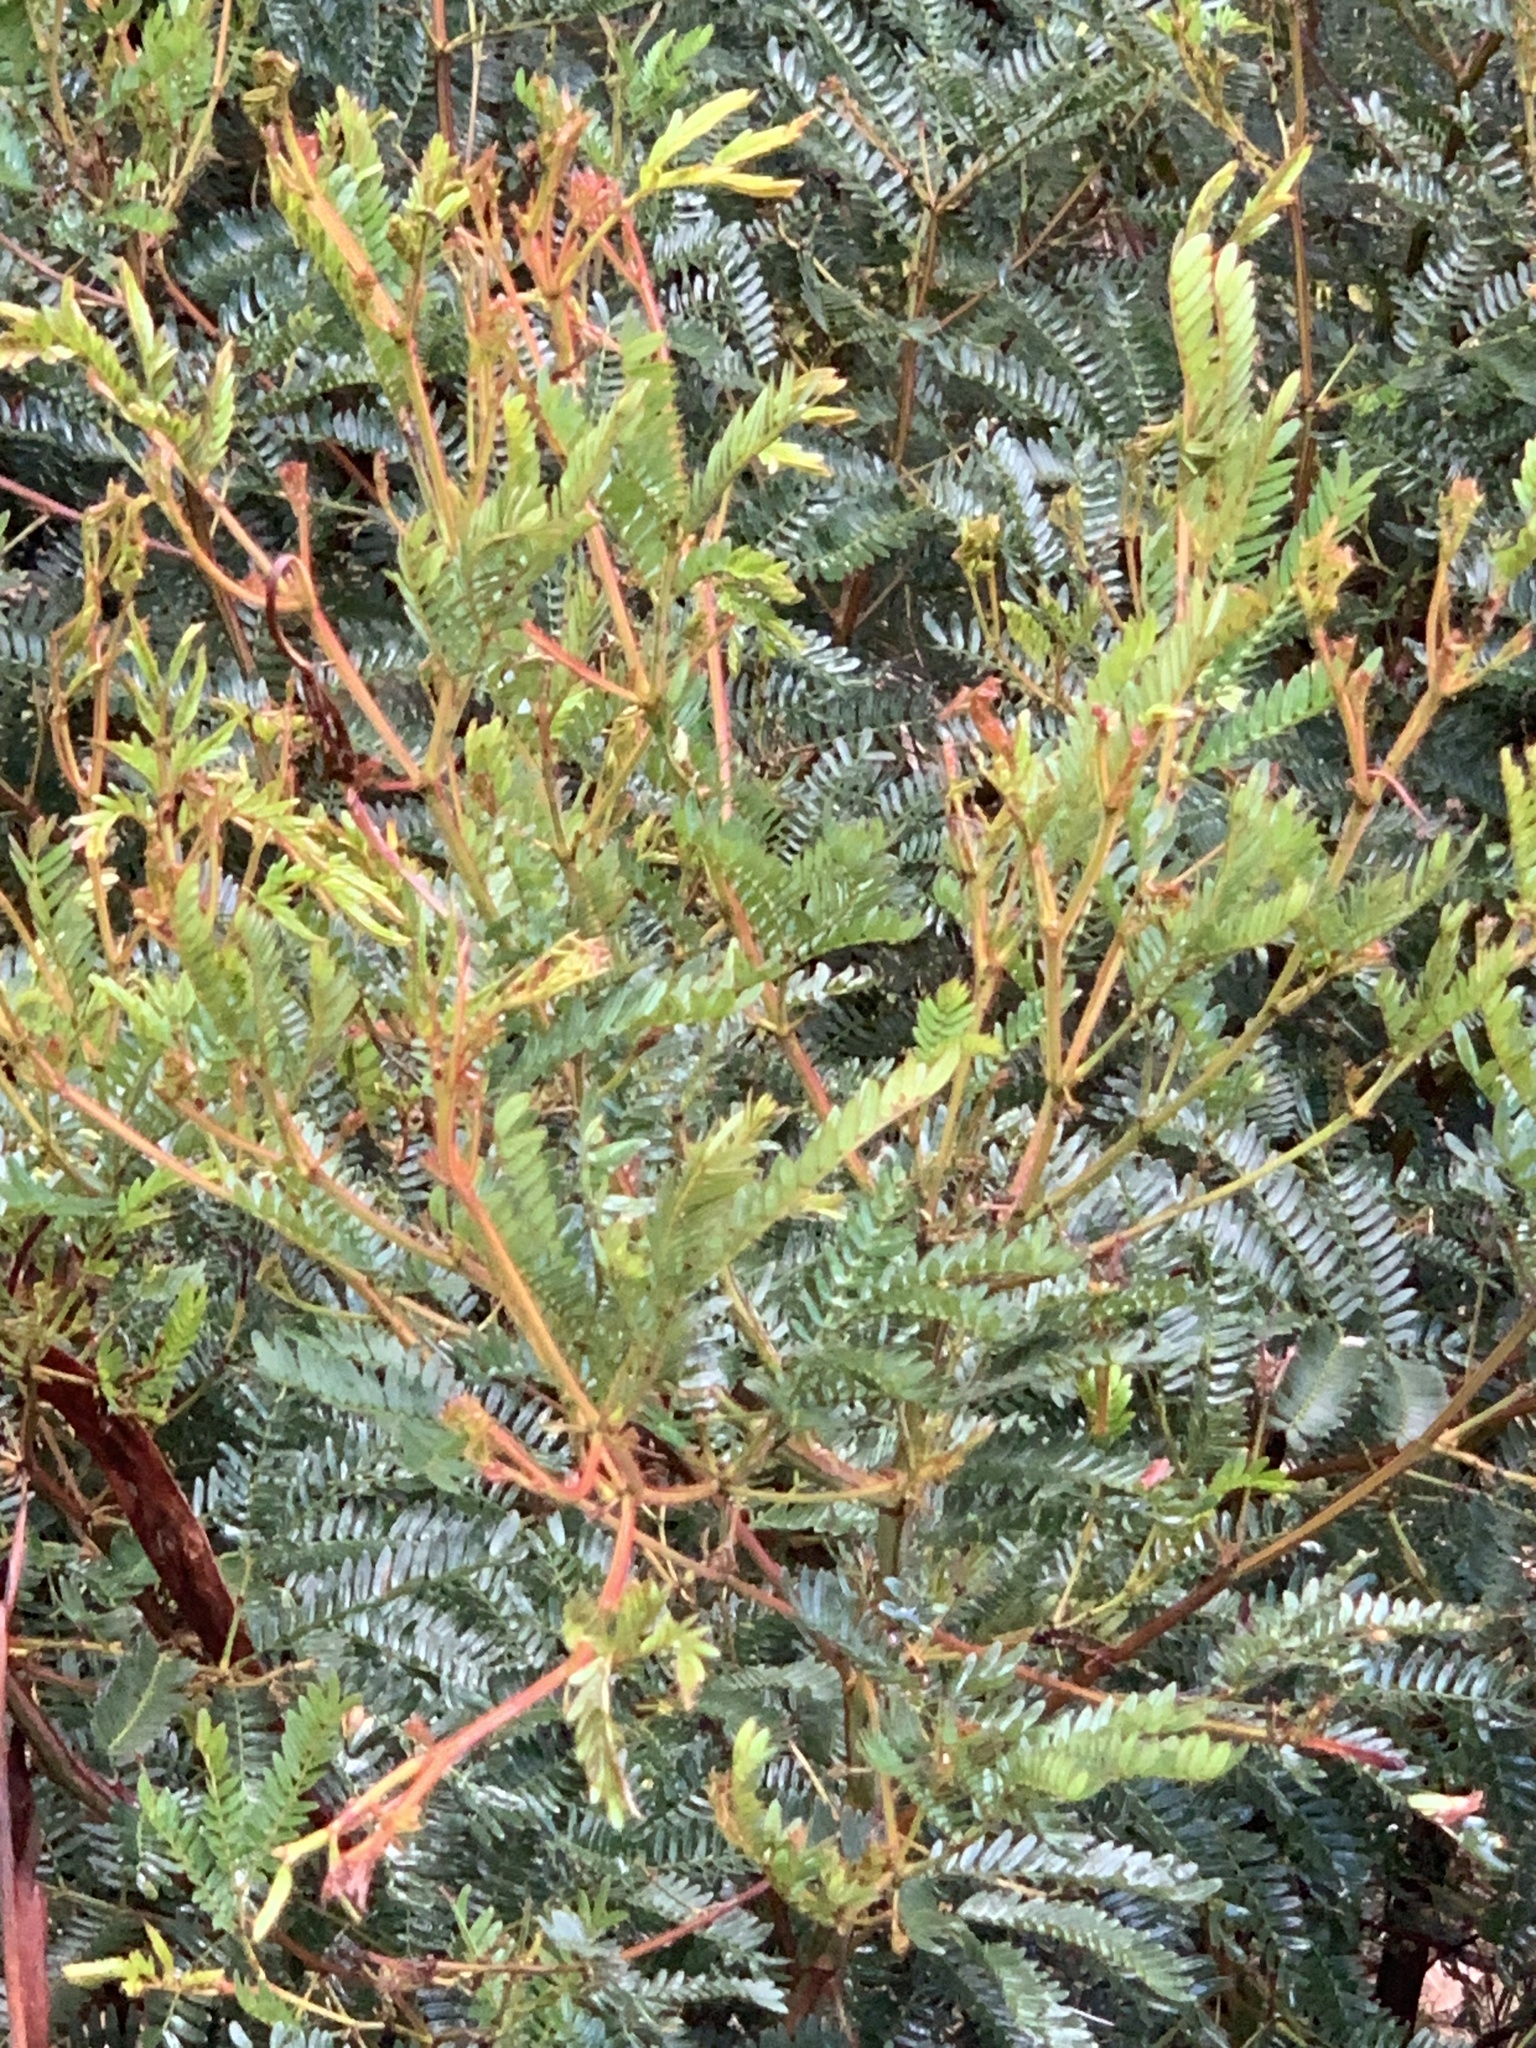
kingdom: Plantae
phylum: Tracheophyta
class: Magnoliopsida
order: Fabales
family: Fabaceae
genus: Acacia
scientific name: Acacia terminalis
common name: Cedar wattle
